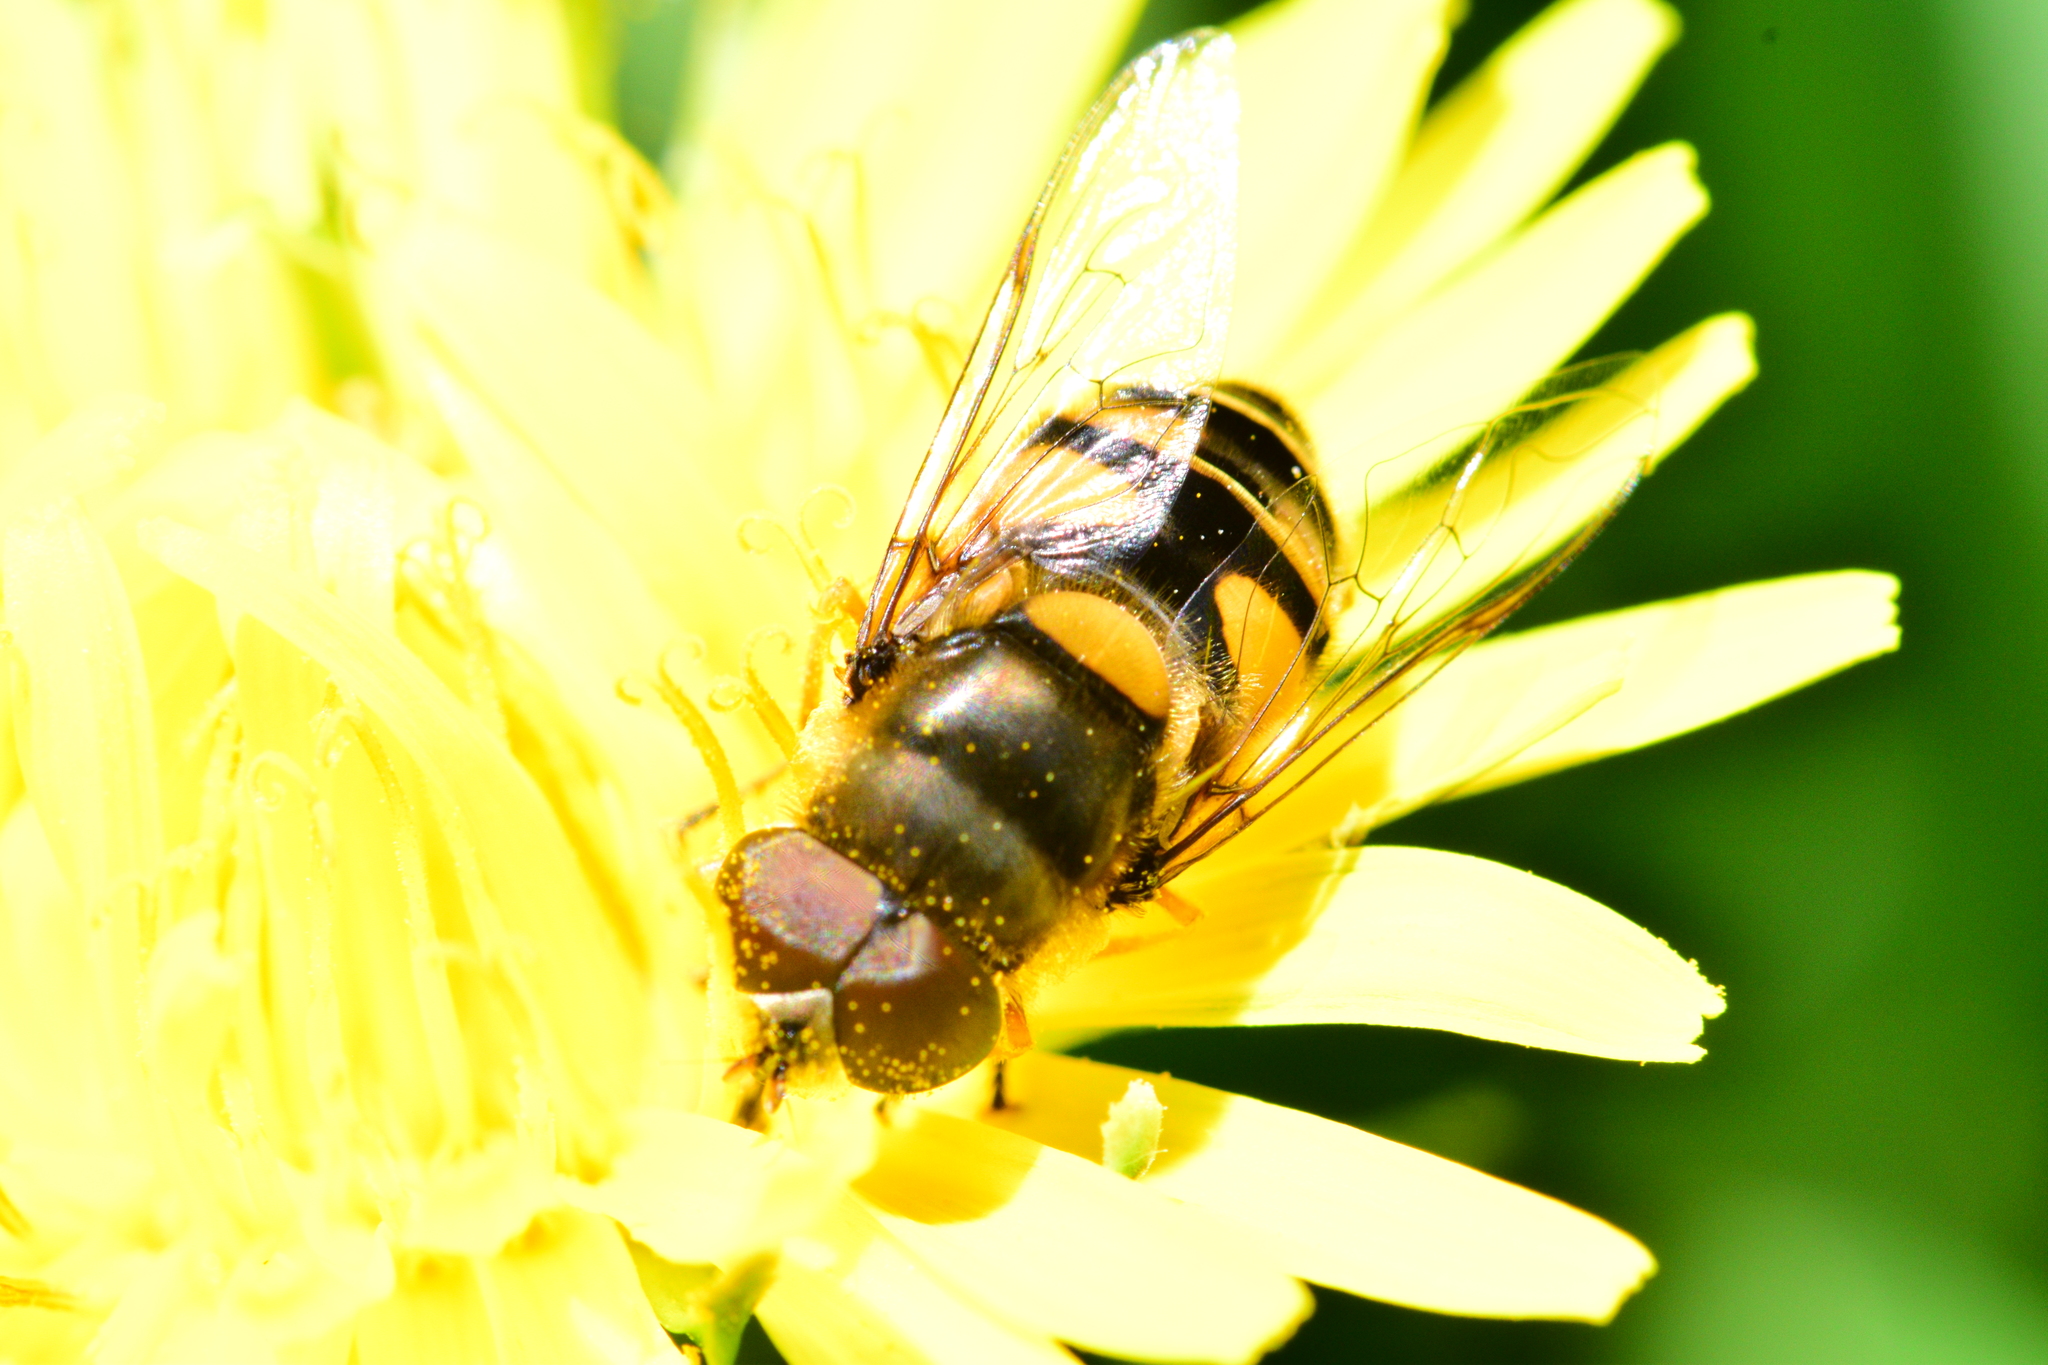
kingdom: Animalia
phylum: Arthropoda
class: Insecta
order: Diptera
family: Syrphidae
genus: Eristalis
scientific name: Eristalis transversa
